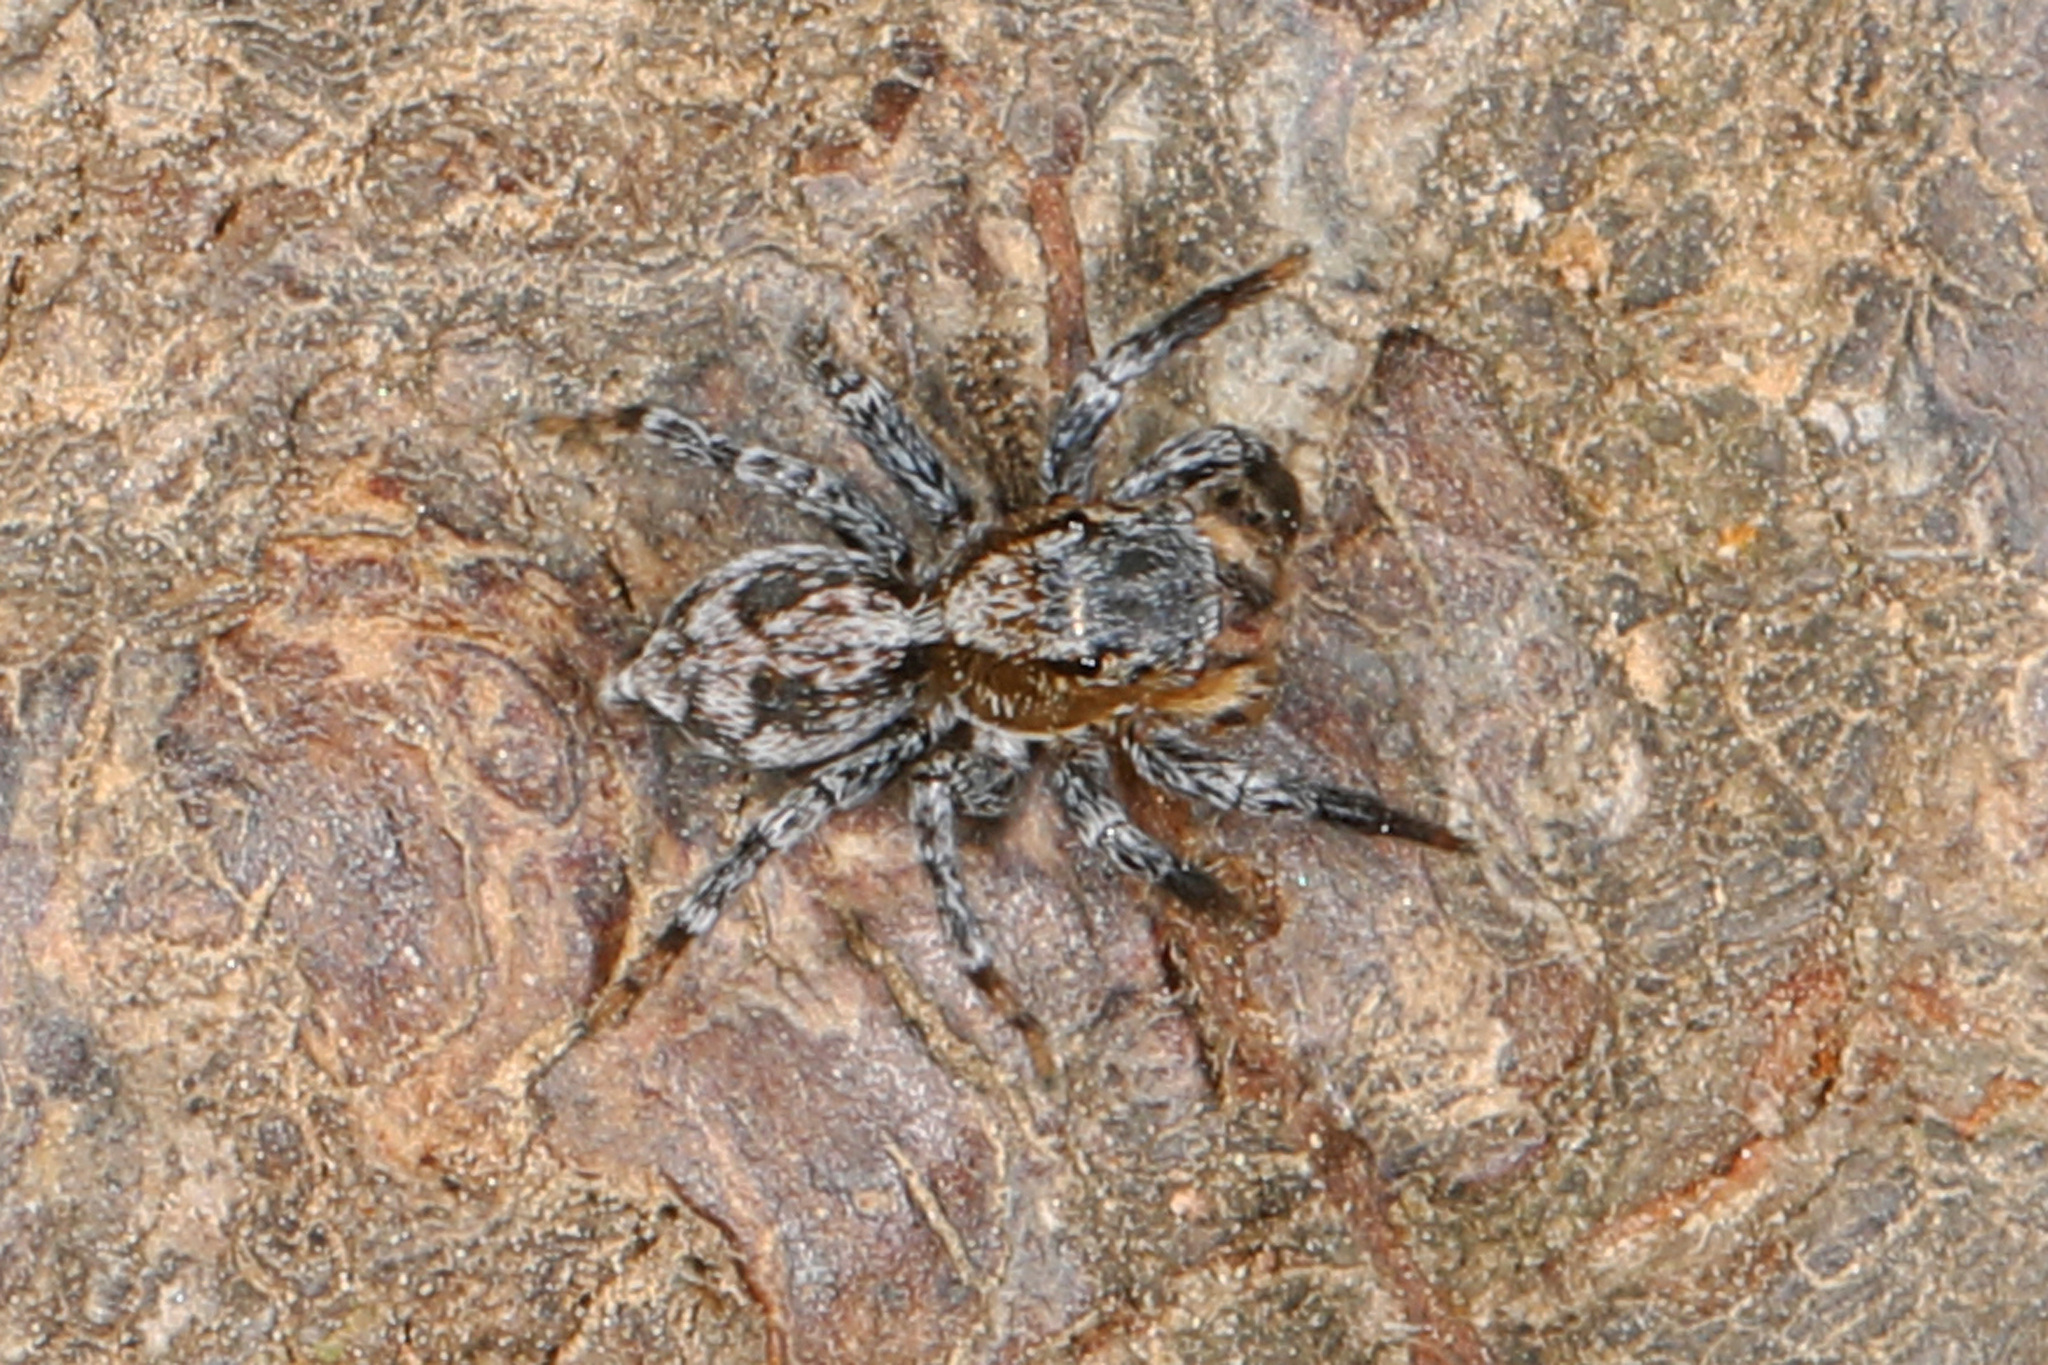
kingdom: Animalia
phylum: Arthropoda
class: Arachnida
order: Araneae
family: Salticidae
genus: Naphrys
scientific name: Naphrys pulex
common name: Flea jumping spider
